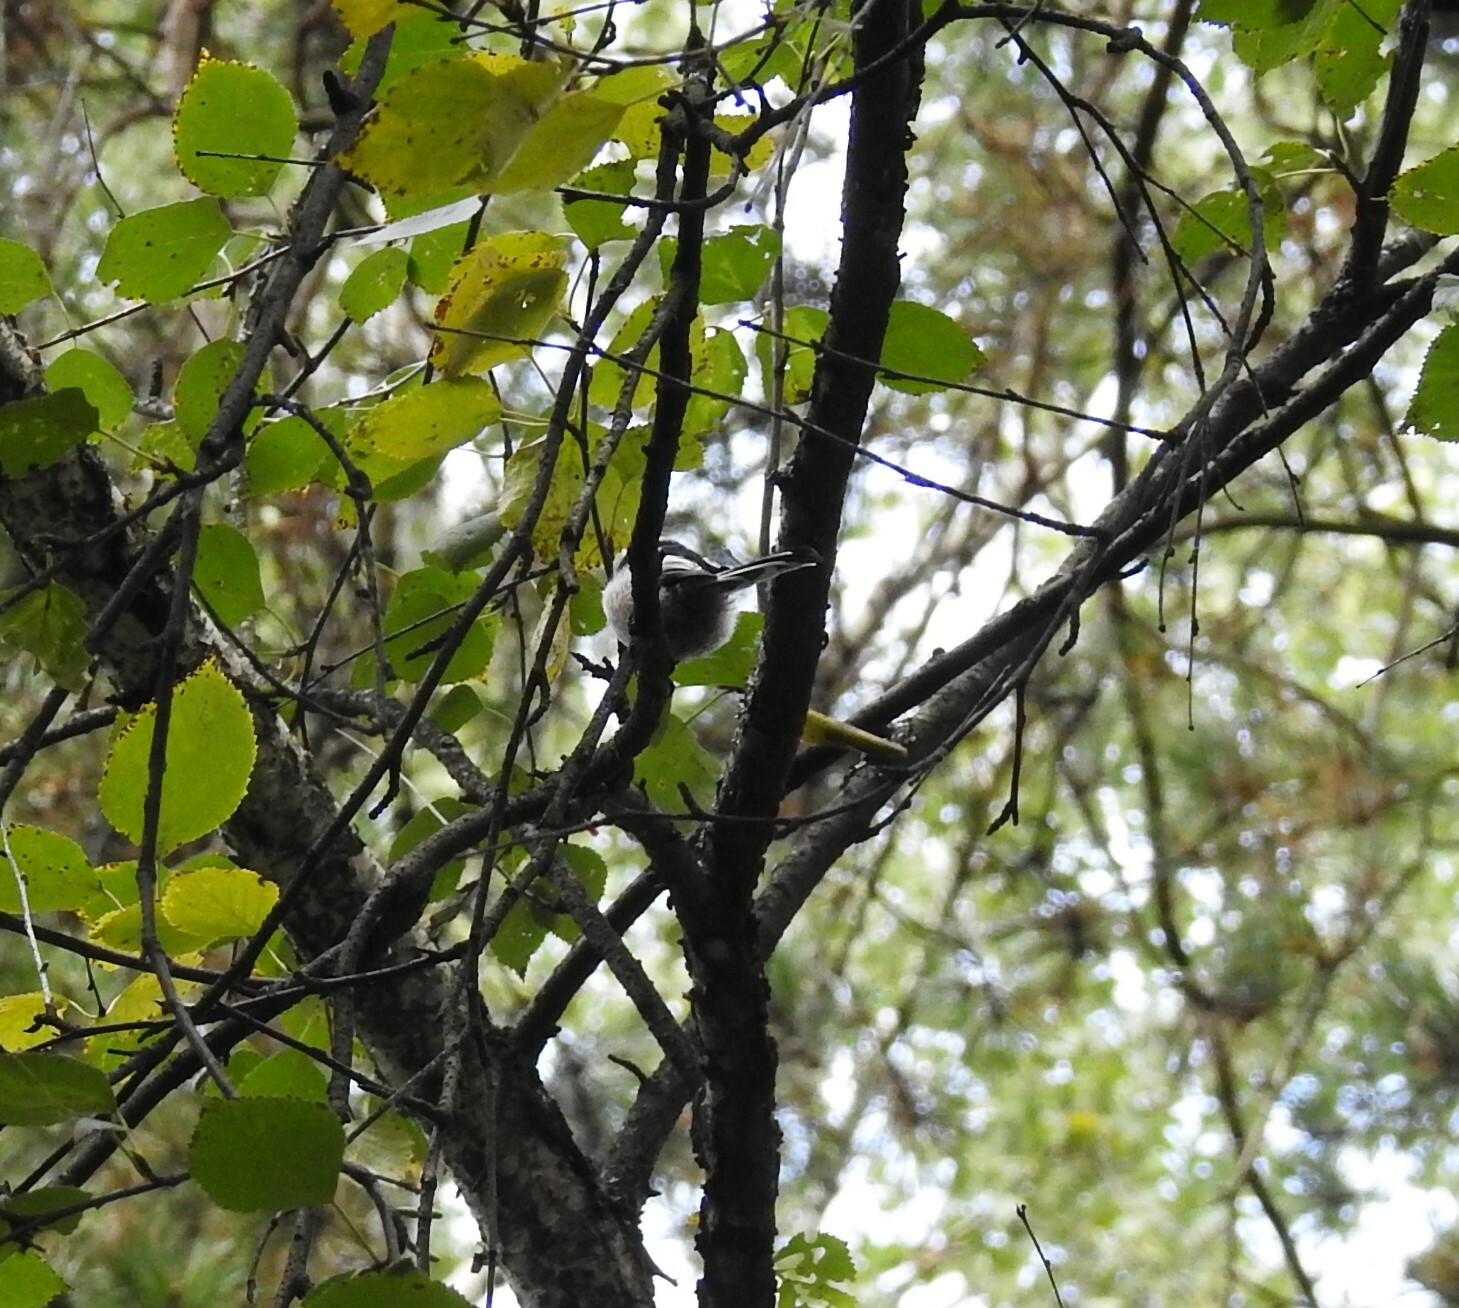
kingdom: Animalia
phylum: Chordata
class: Aves
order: Passeriformes
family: Aegithalidae
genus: Aegithalos
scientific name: Aegithalos caudatus
